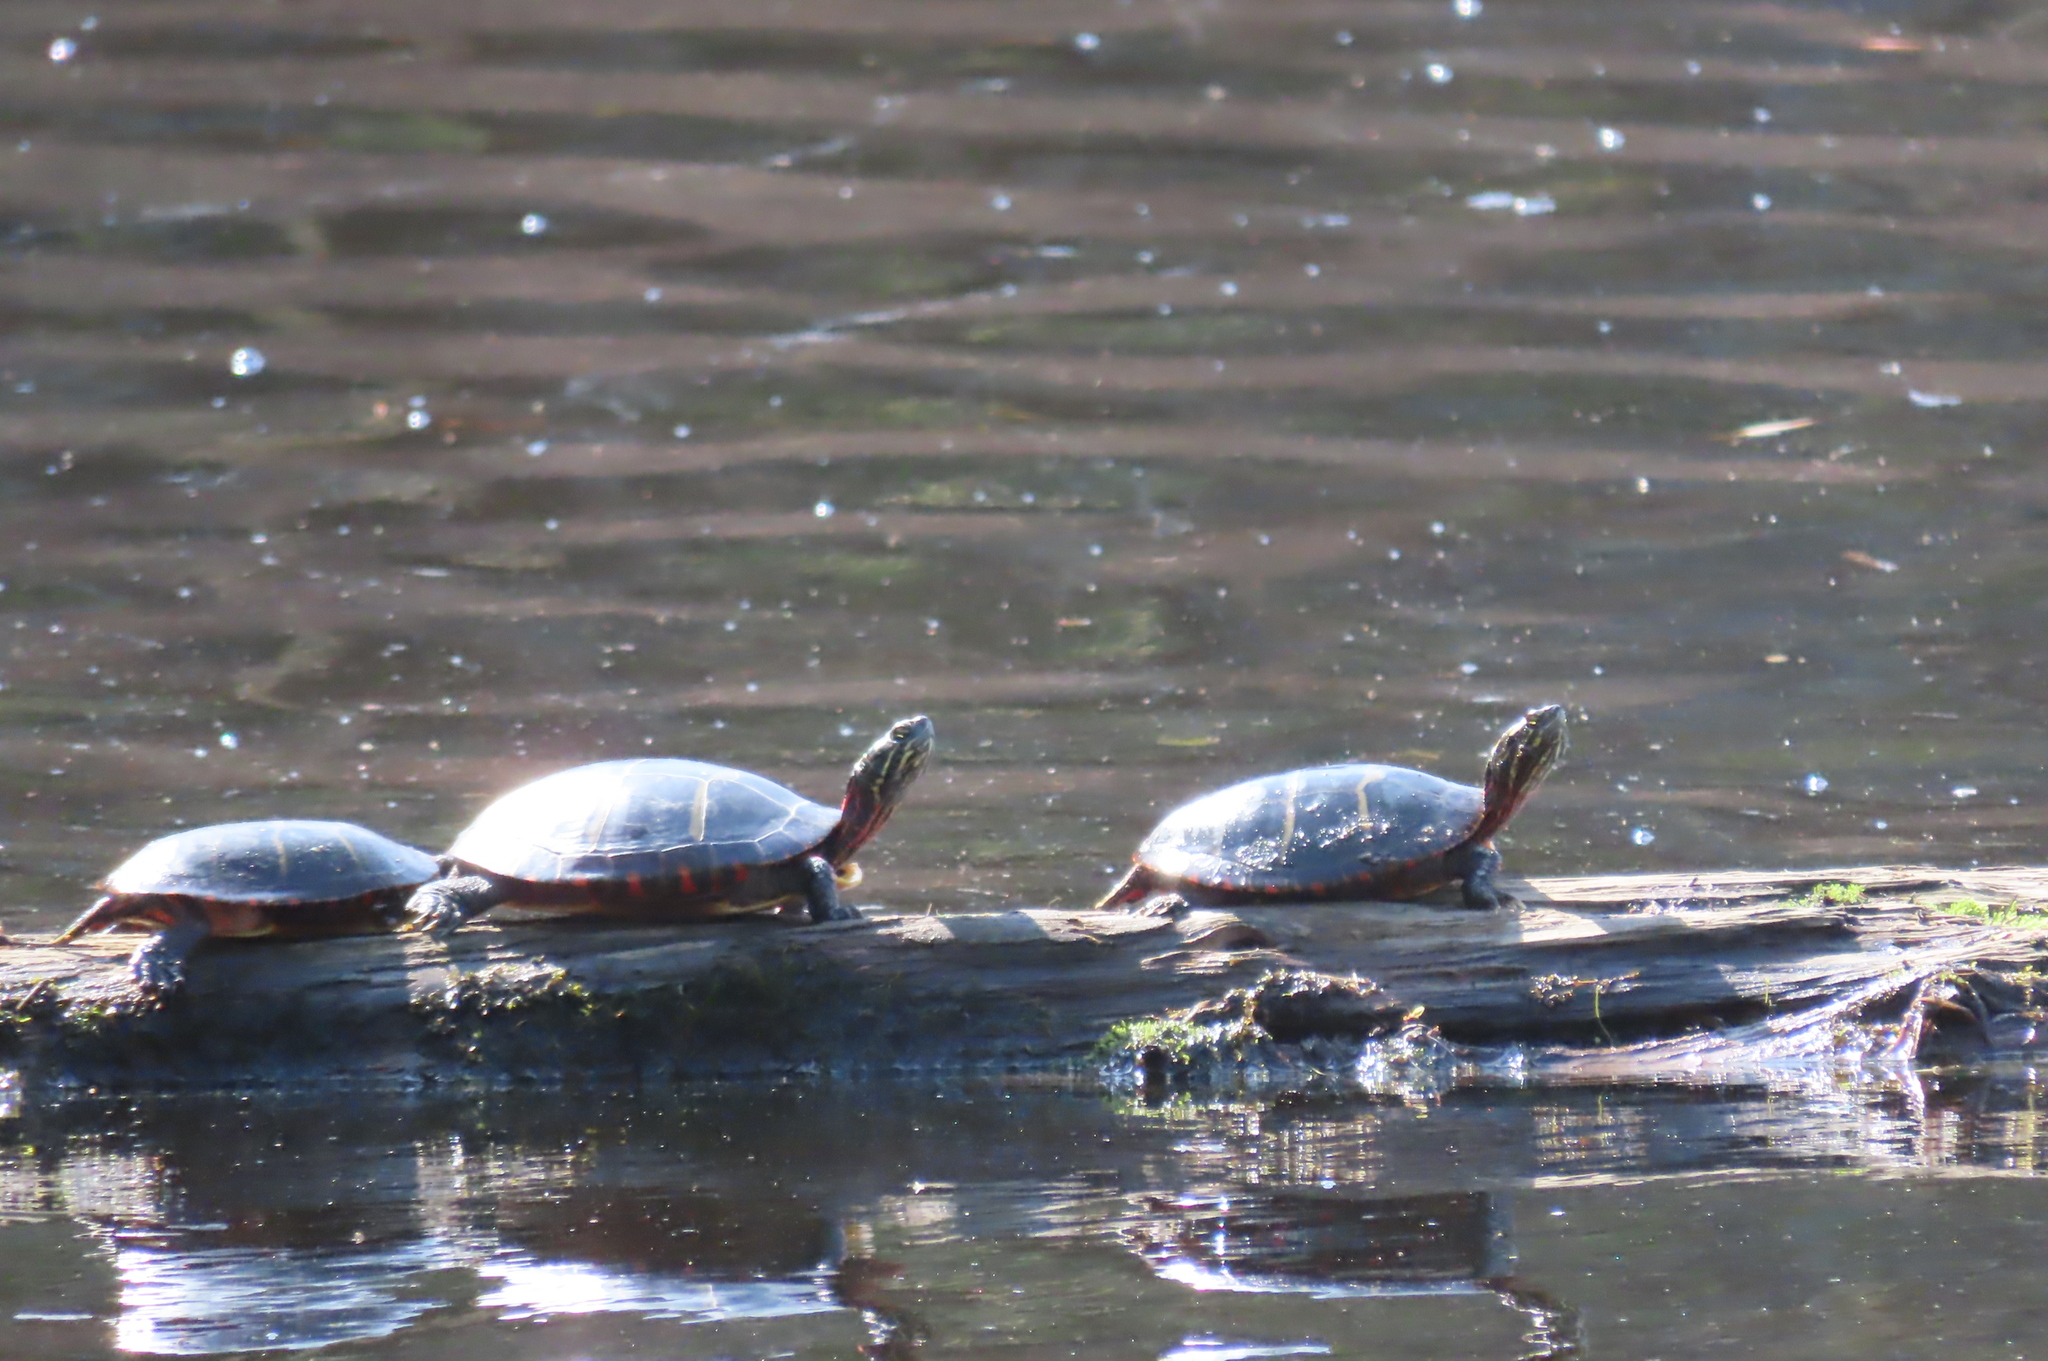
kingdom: Animalia
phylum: Chordata
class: Testudines
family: Emydidae
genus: Chrysemys
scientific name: Chrysemys picta
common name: Painted turtle
